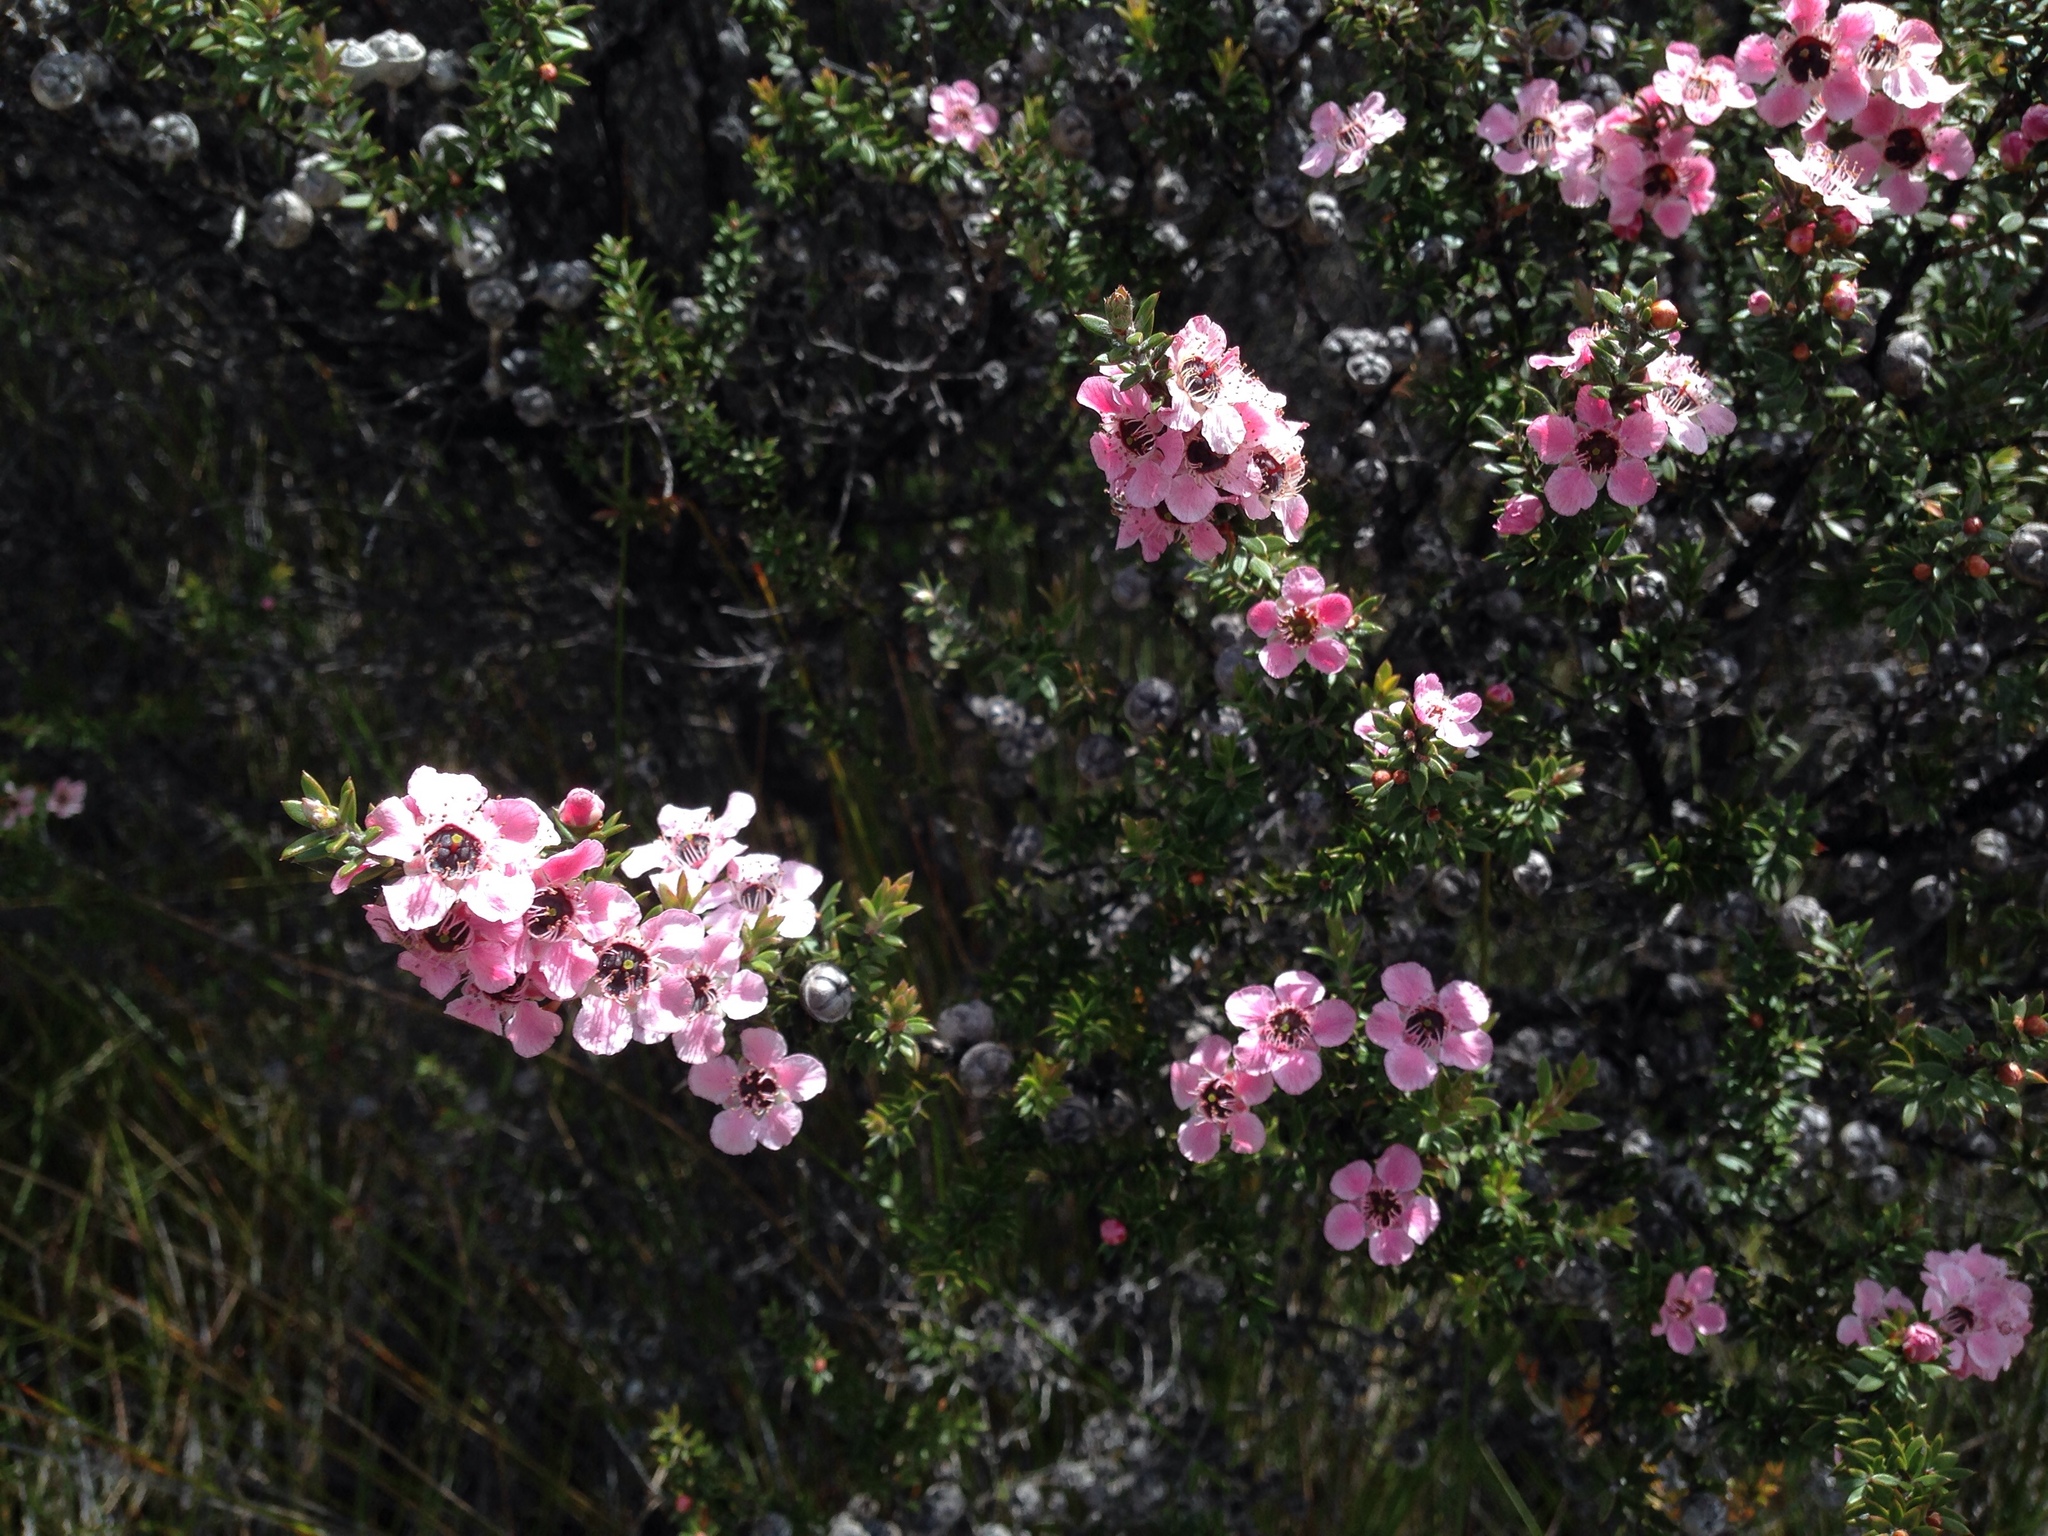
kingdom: Plantae
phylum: Tracheophyta
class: Magnoliopsida
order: Myrtales
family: Myrtaceae
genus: Leptospermum
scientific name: Leptospermum scoparium
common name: Broom tea-tree
